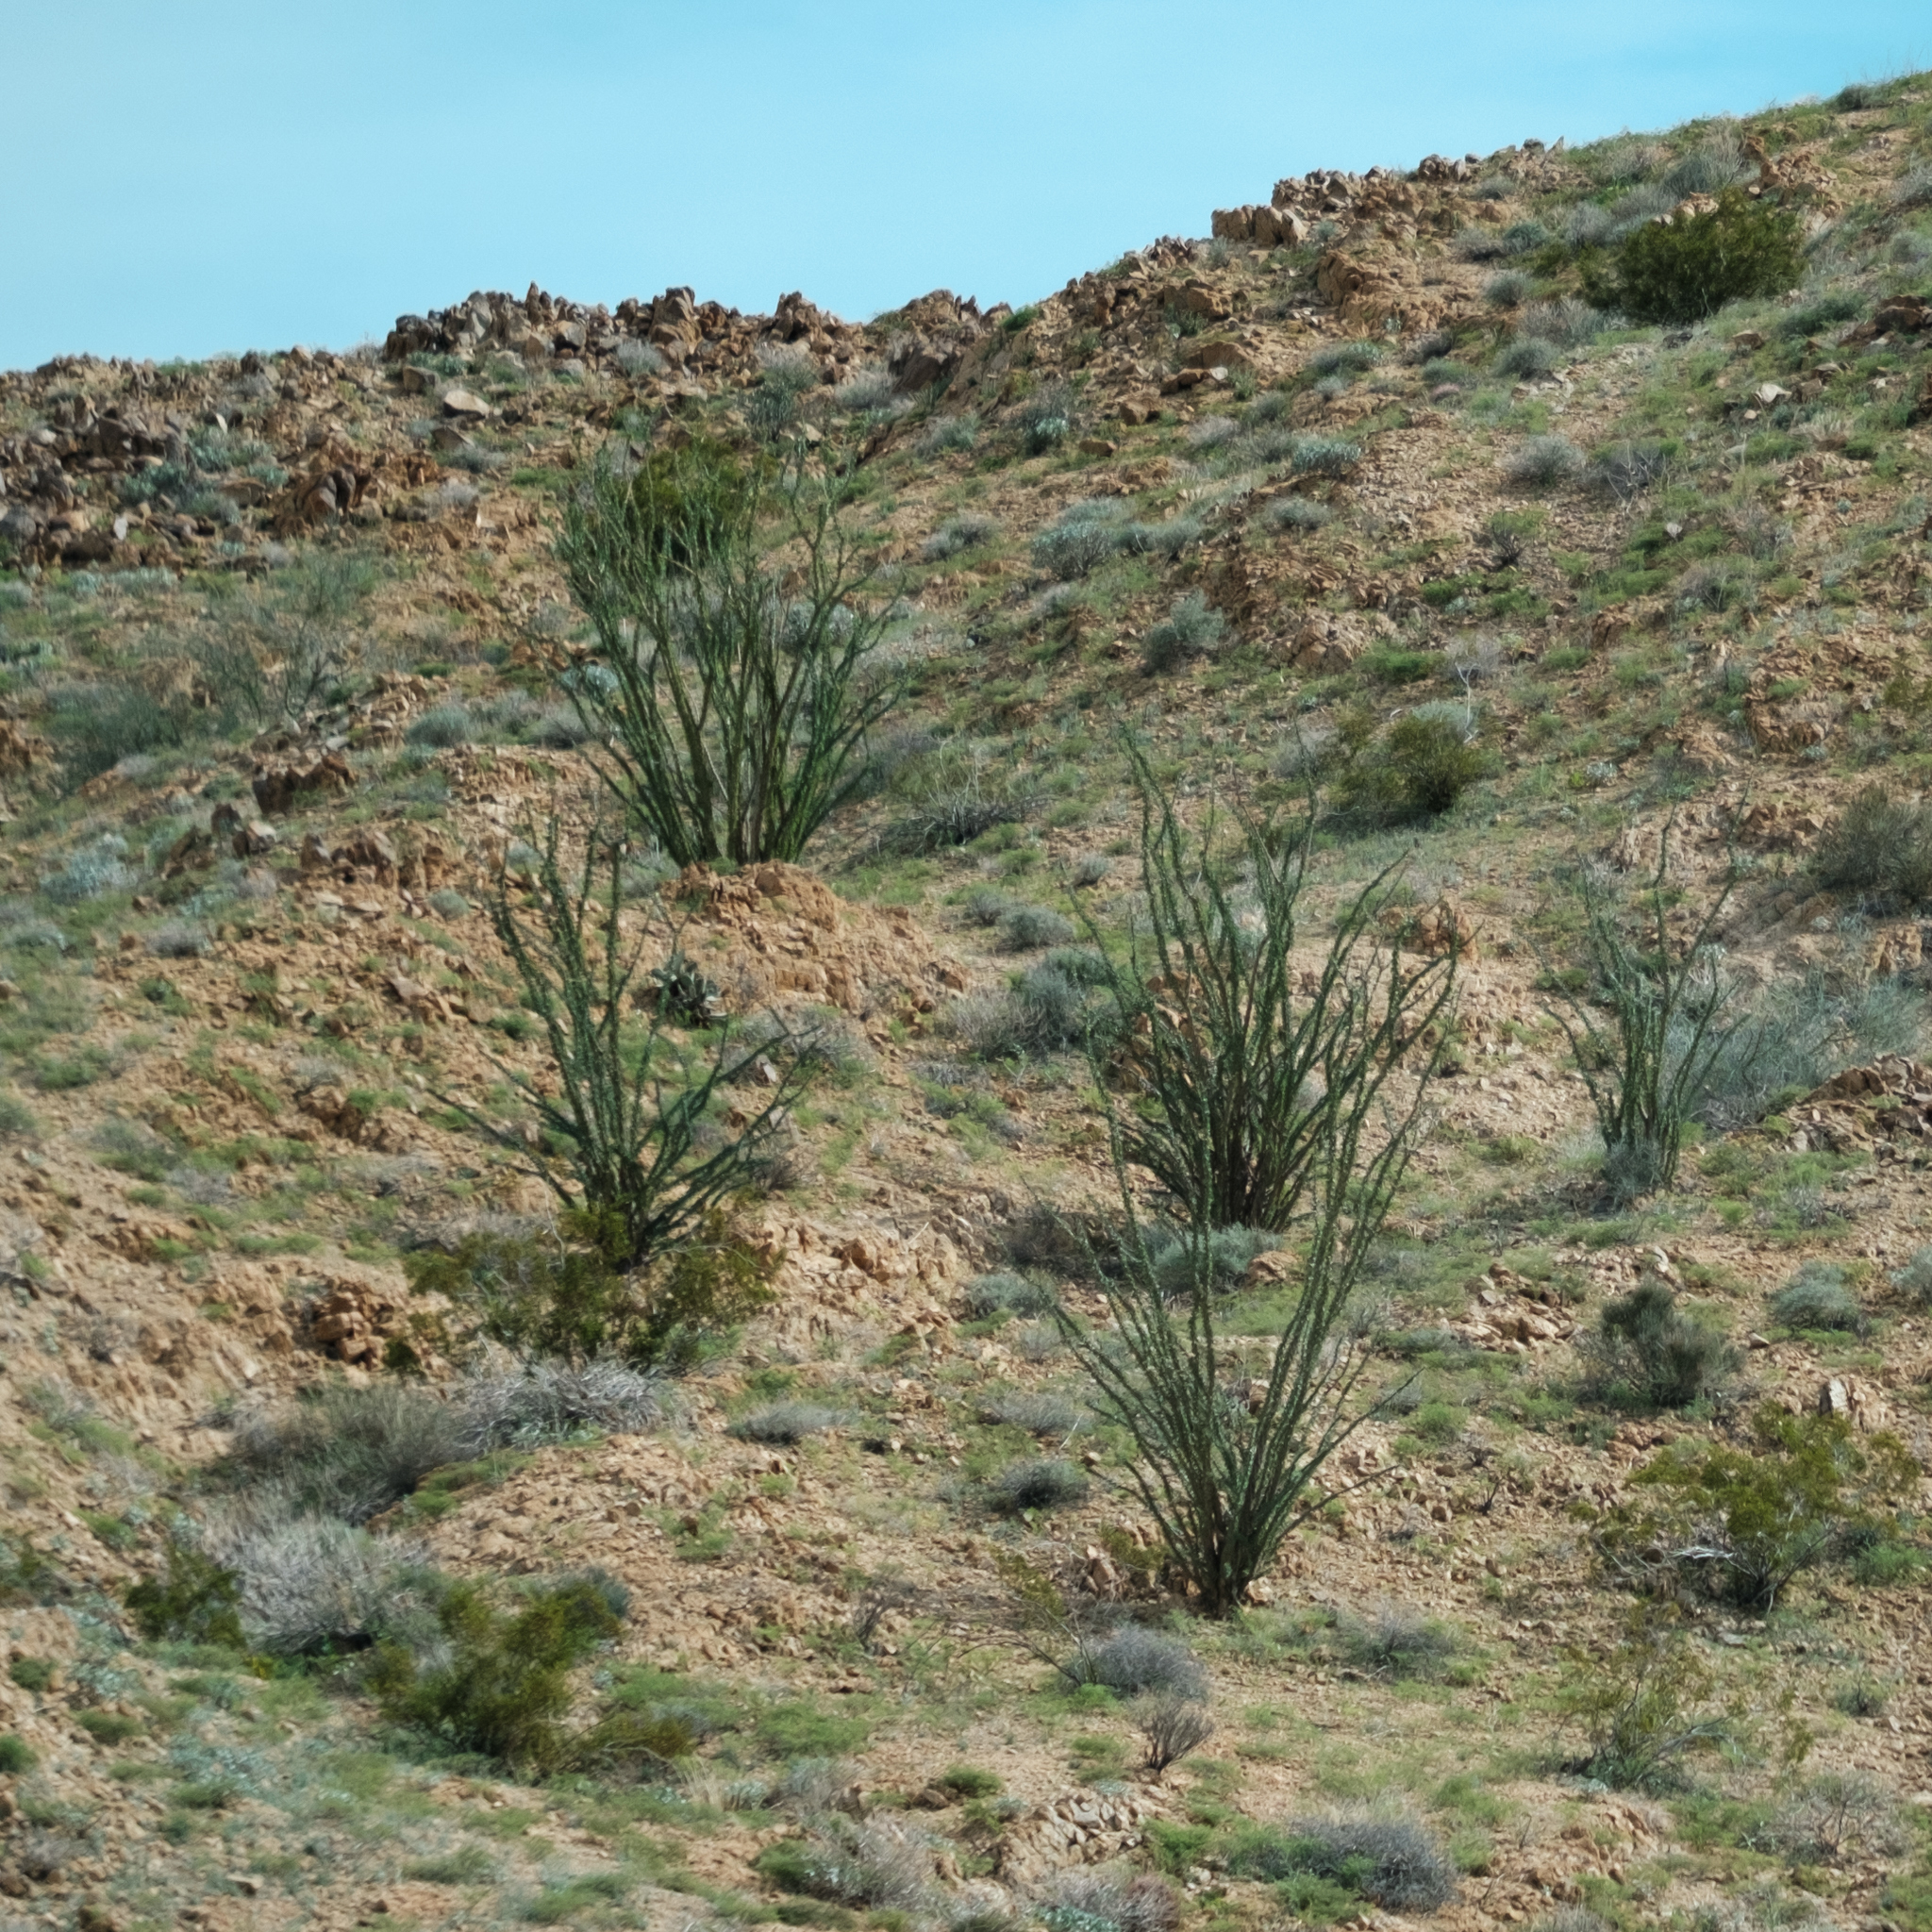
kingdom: Plantae
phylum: Tracheophyta
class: Magnoliopsida
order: Ericales
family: Fouquieriaceae
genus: Fouquieria
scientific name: Fouquieria splendens
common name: Vine-cactus
